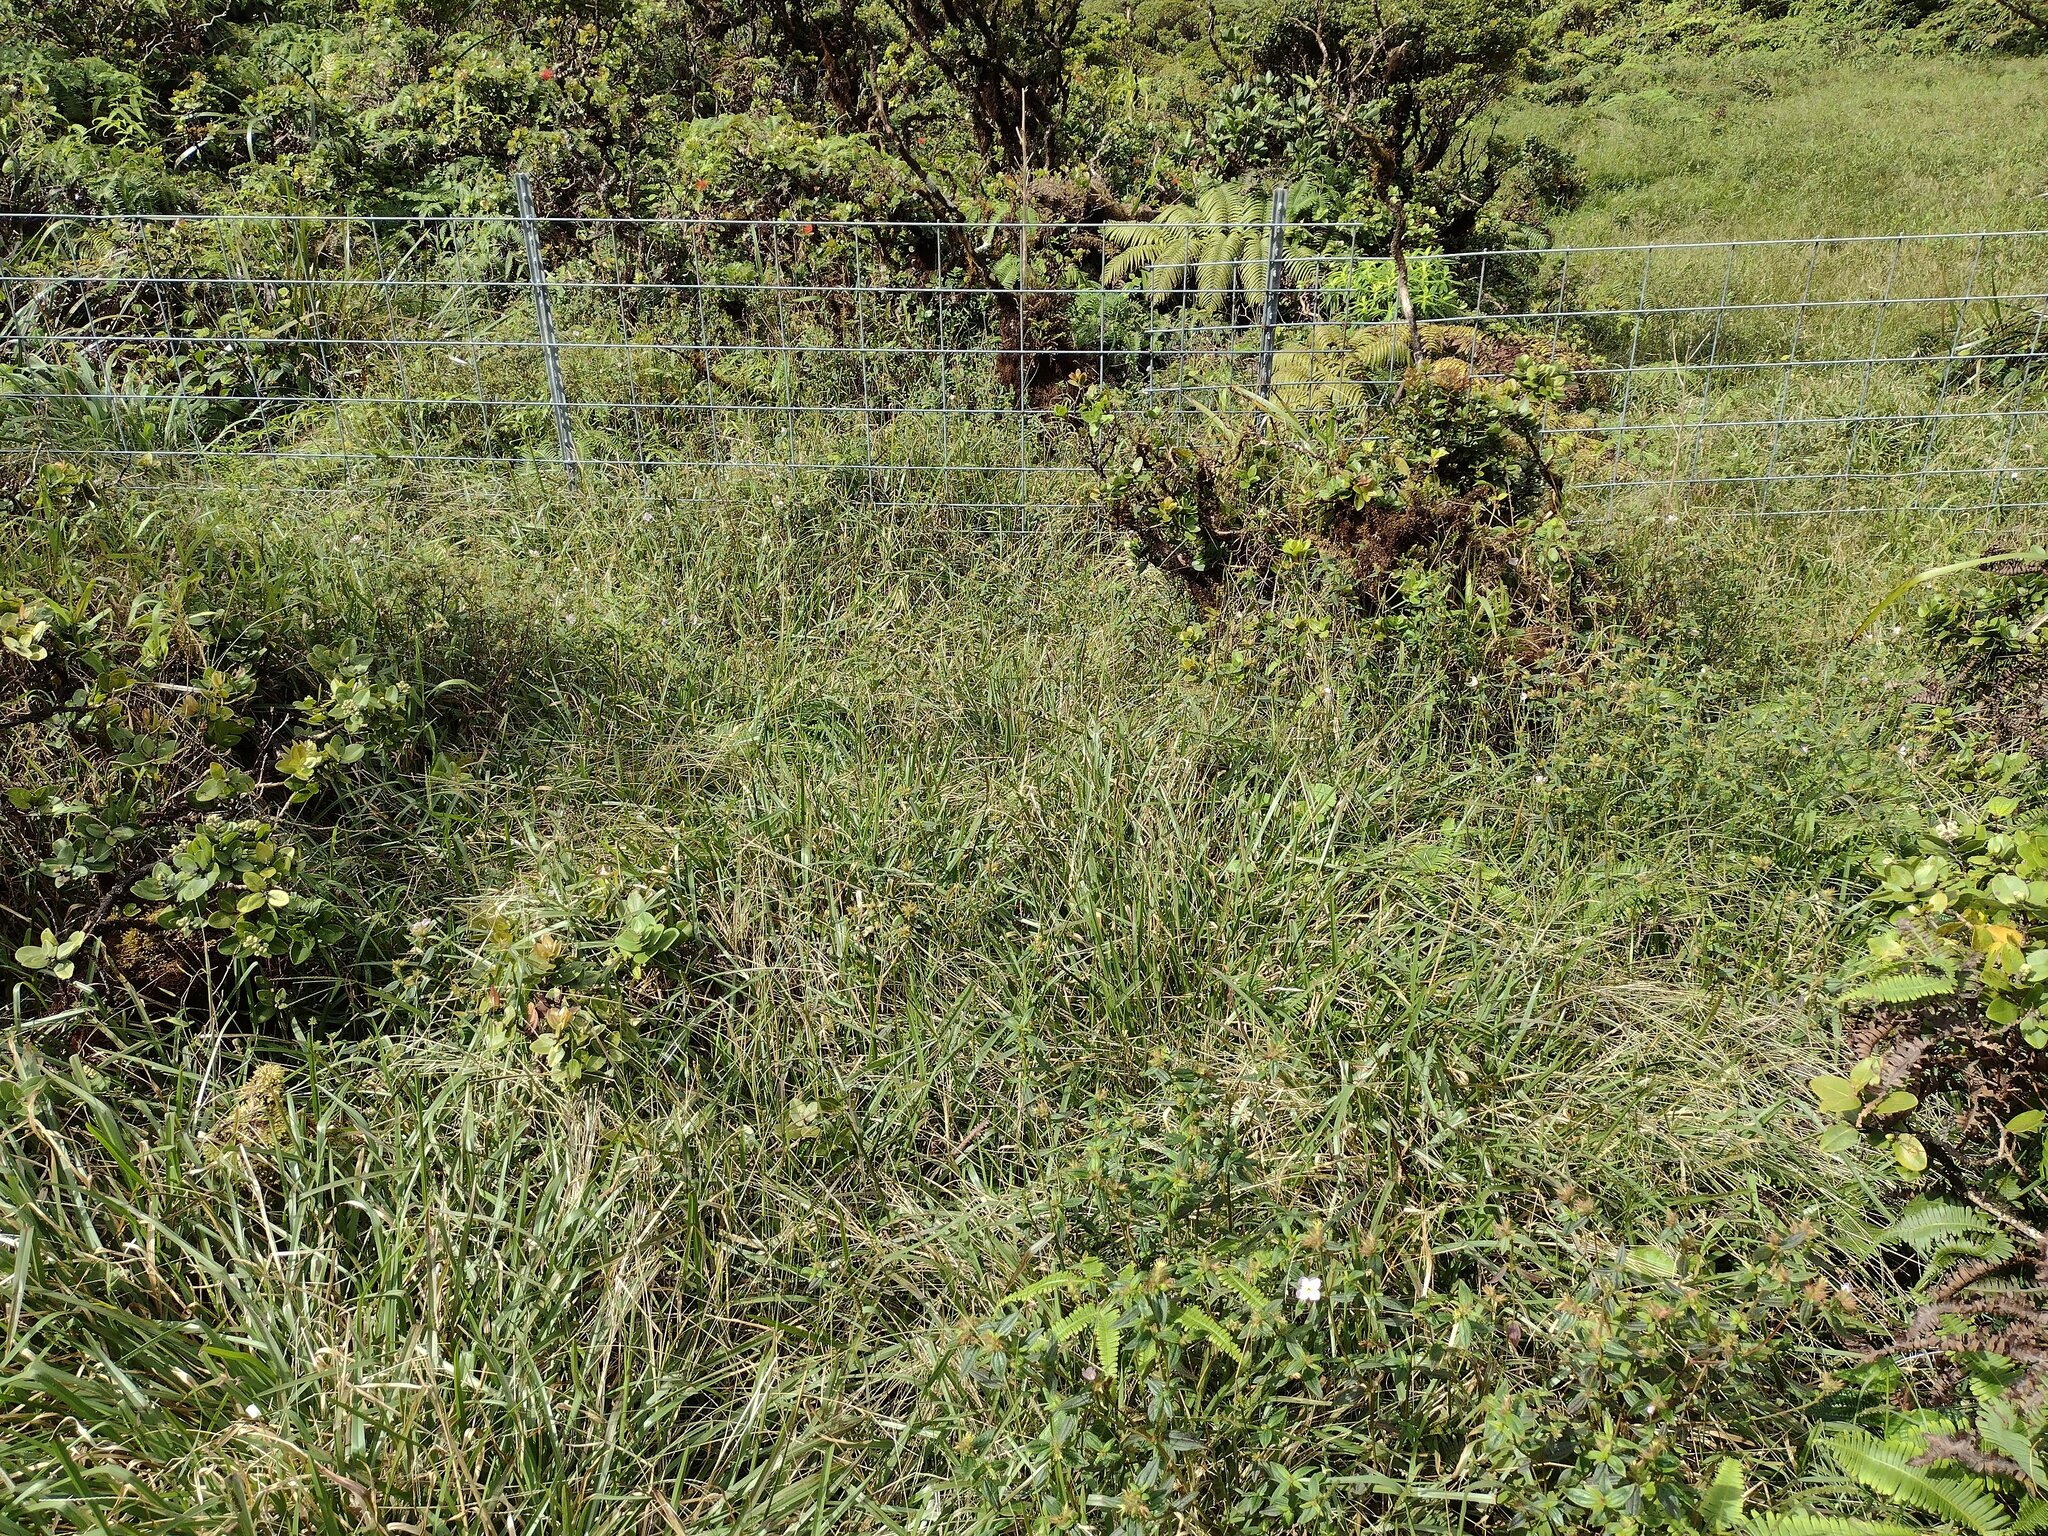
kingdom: Plantae
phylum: Tracheophyta
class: Liliopsida
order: Poales
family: Poaceae
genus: Axonopus
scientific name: Axonopus fissifolius
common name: Common carpetgrass
